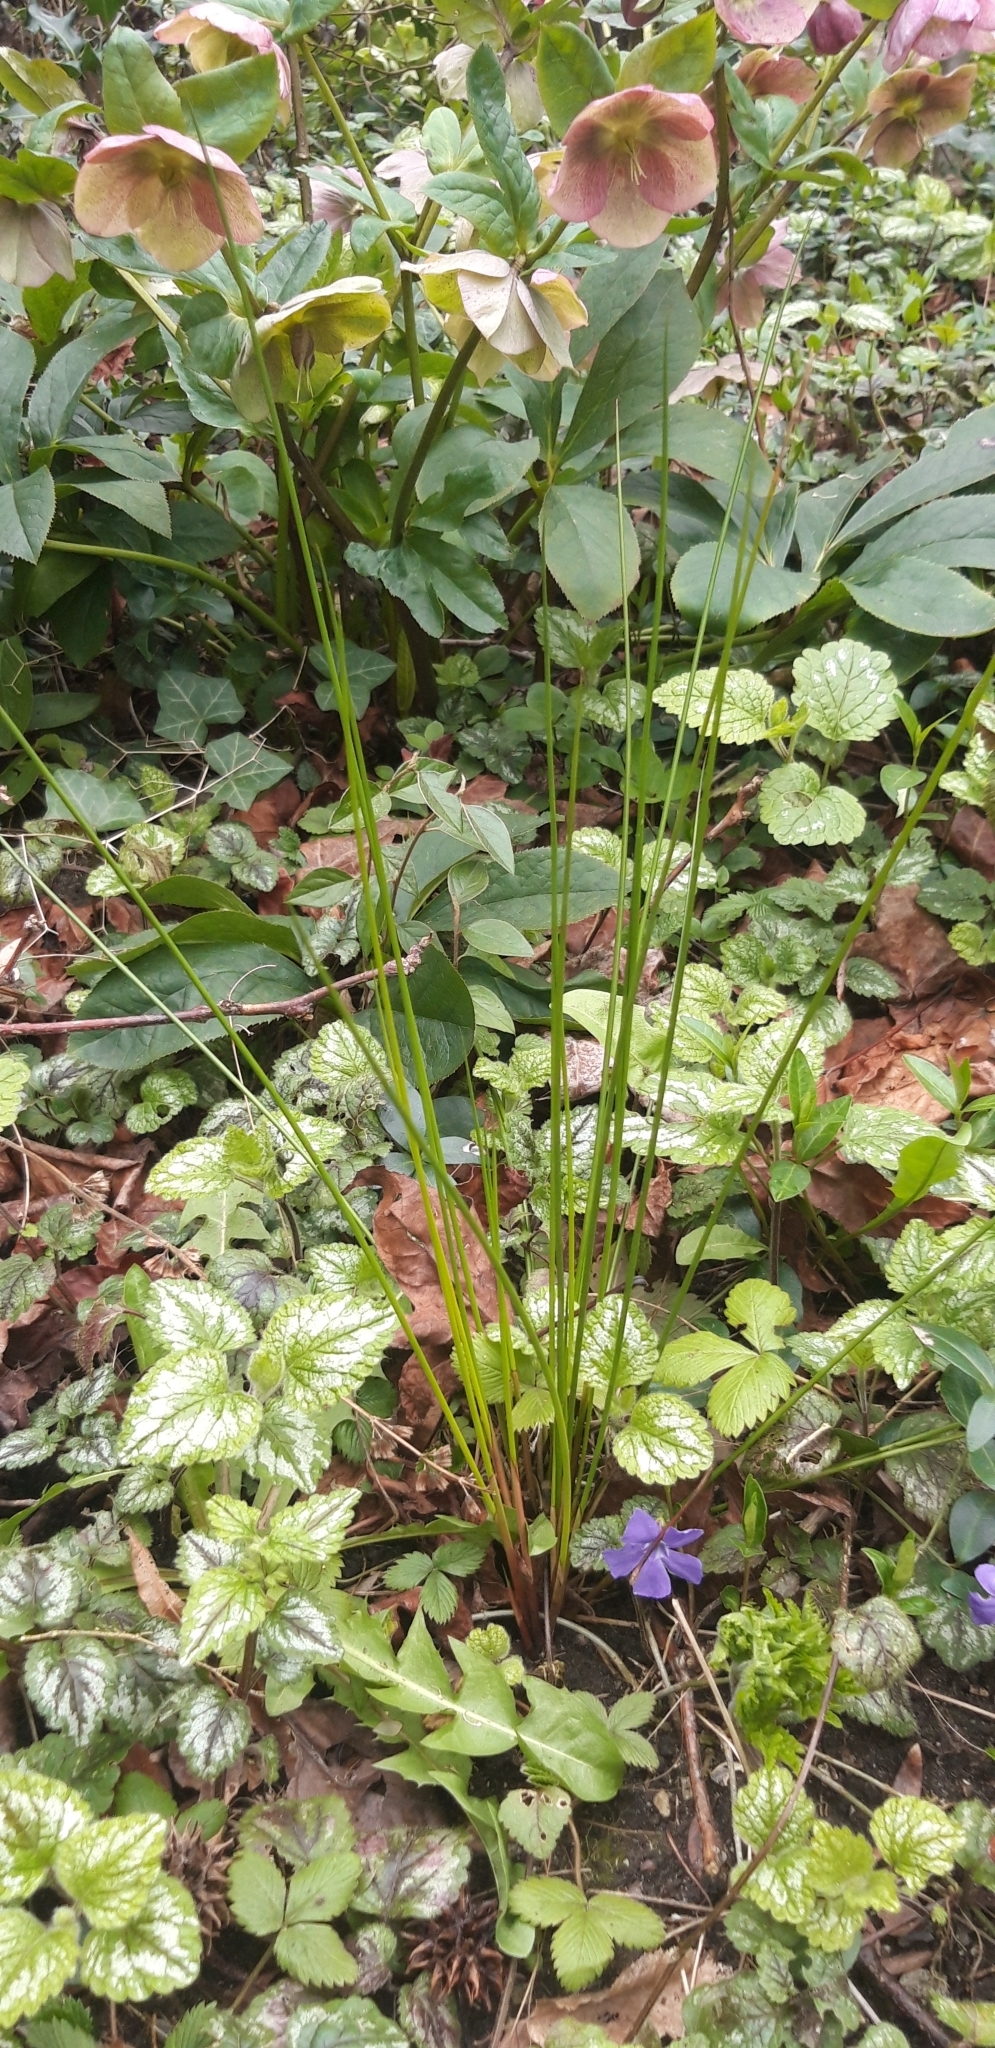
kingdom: Plantae
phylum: Tracheophyta
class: Liliopsida
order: Poales
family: Juncaceae
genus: Juncus
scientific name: Juncus effusus
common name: Soft rush
